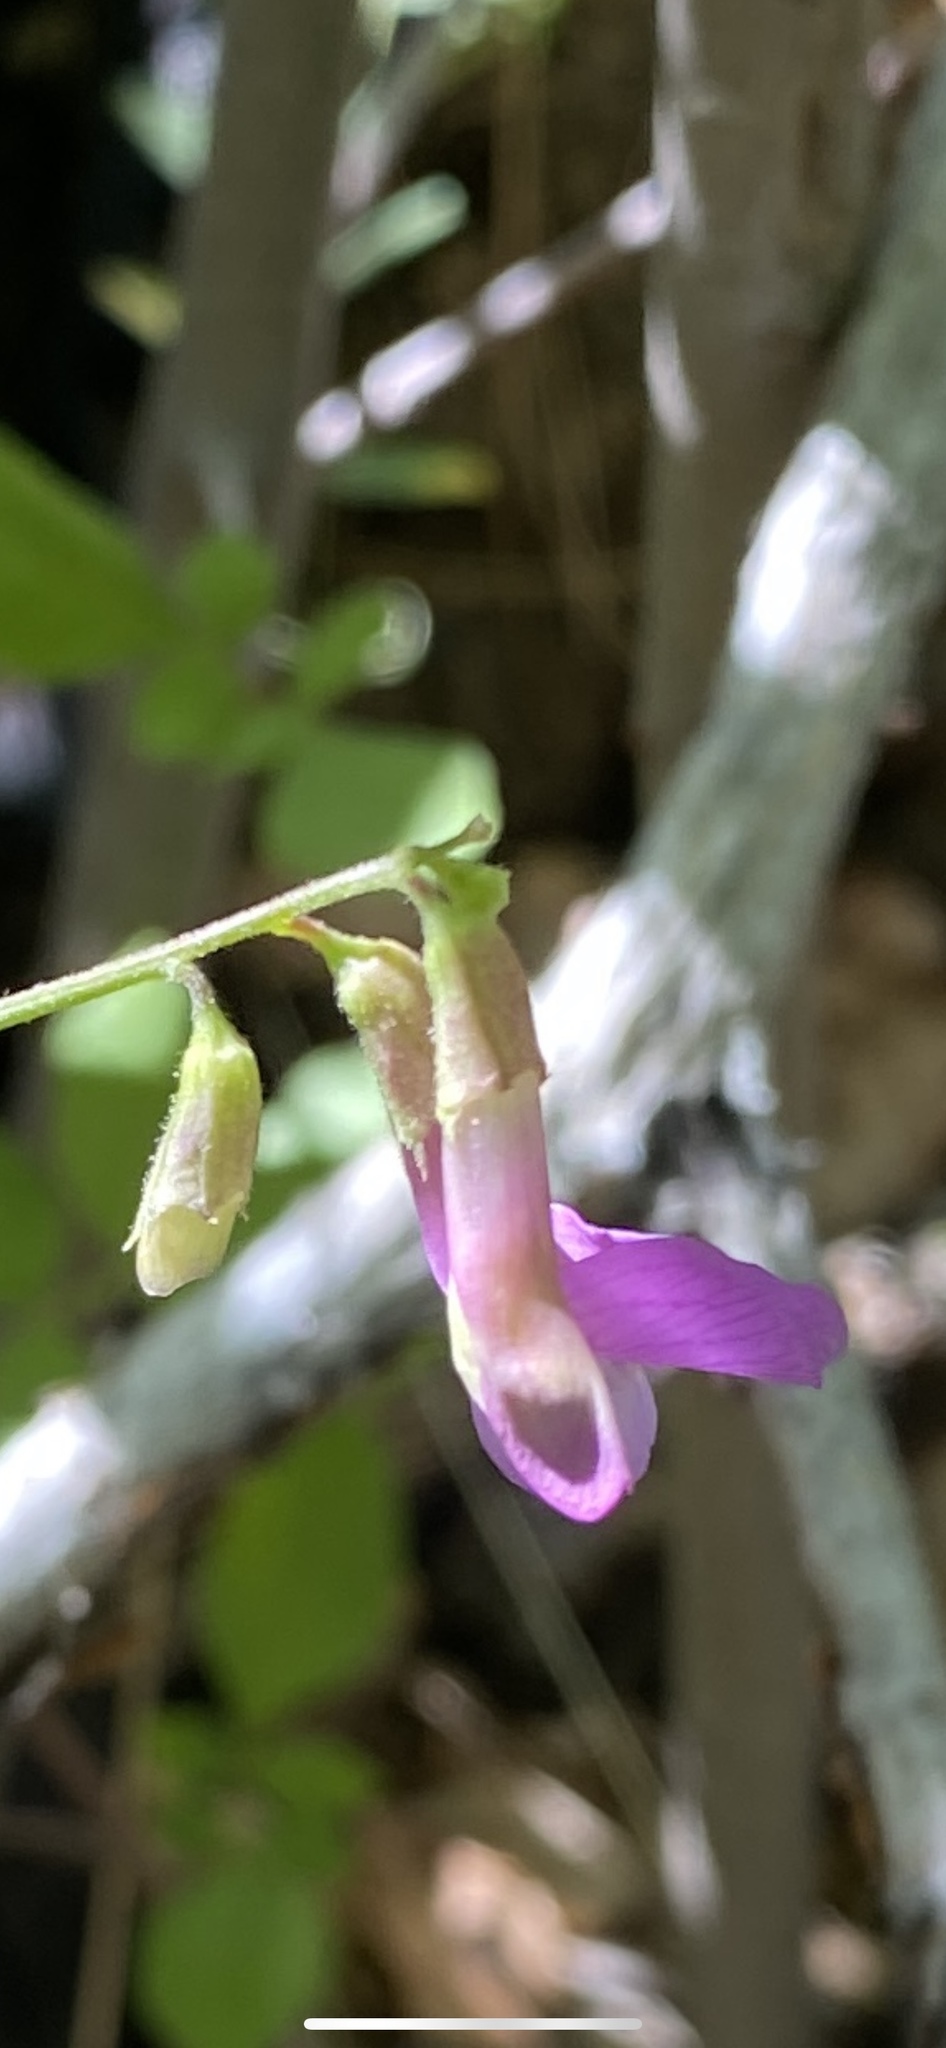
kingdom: Plantae
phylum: Tracheophyta
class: Magnoliopsida
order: Fabales
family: Fabaceae
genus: Vicia
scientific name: Vicia americana
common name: American vetch
